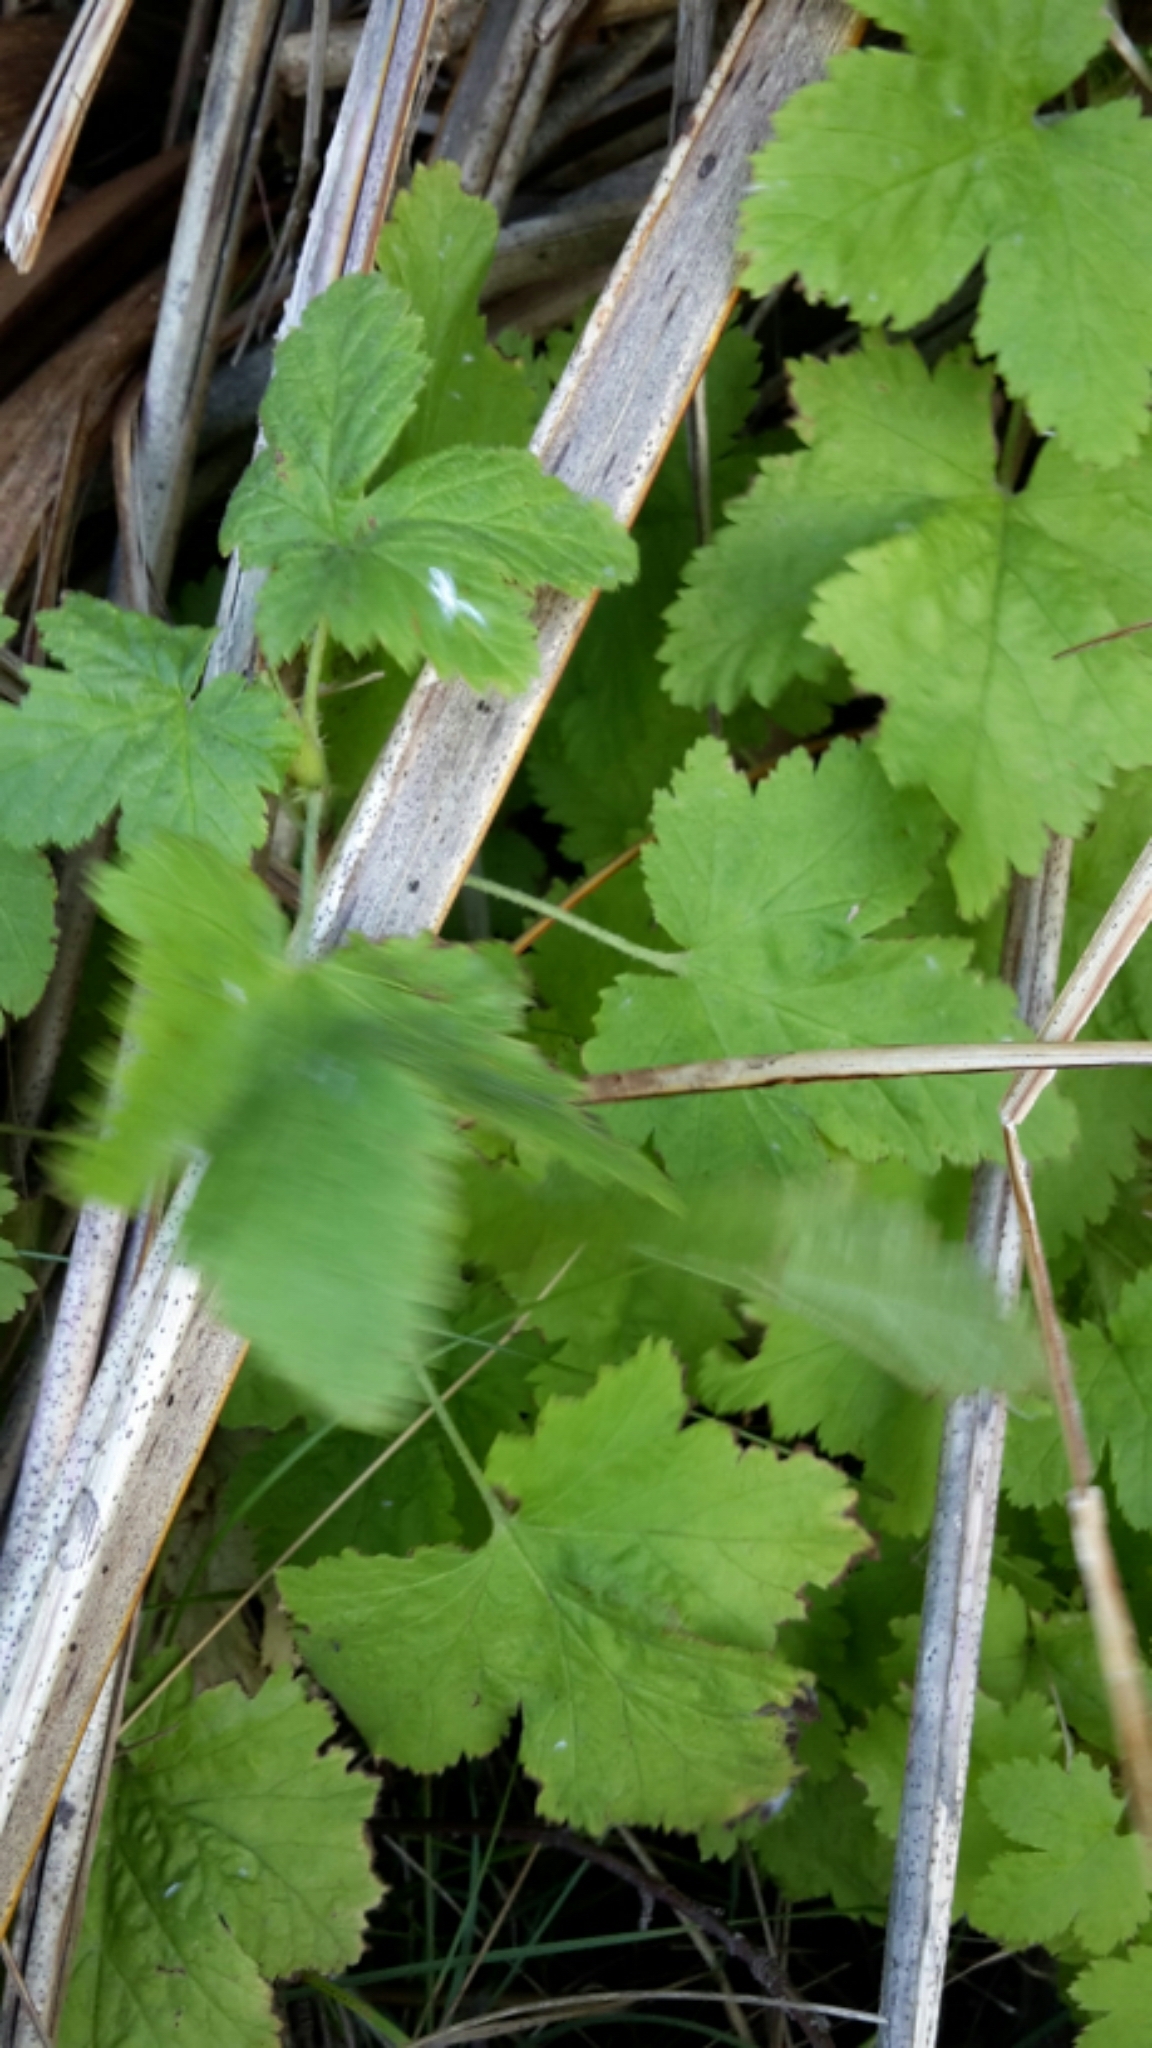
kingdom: Plantae
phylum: Tracheophyta
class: Magnoliopsida
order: Saxifragales
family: Grossulariaceae
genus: Ribes
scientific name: Ribes rubrum
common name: Red currant
